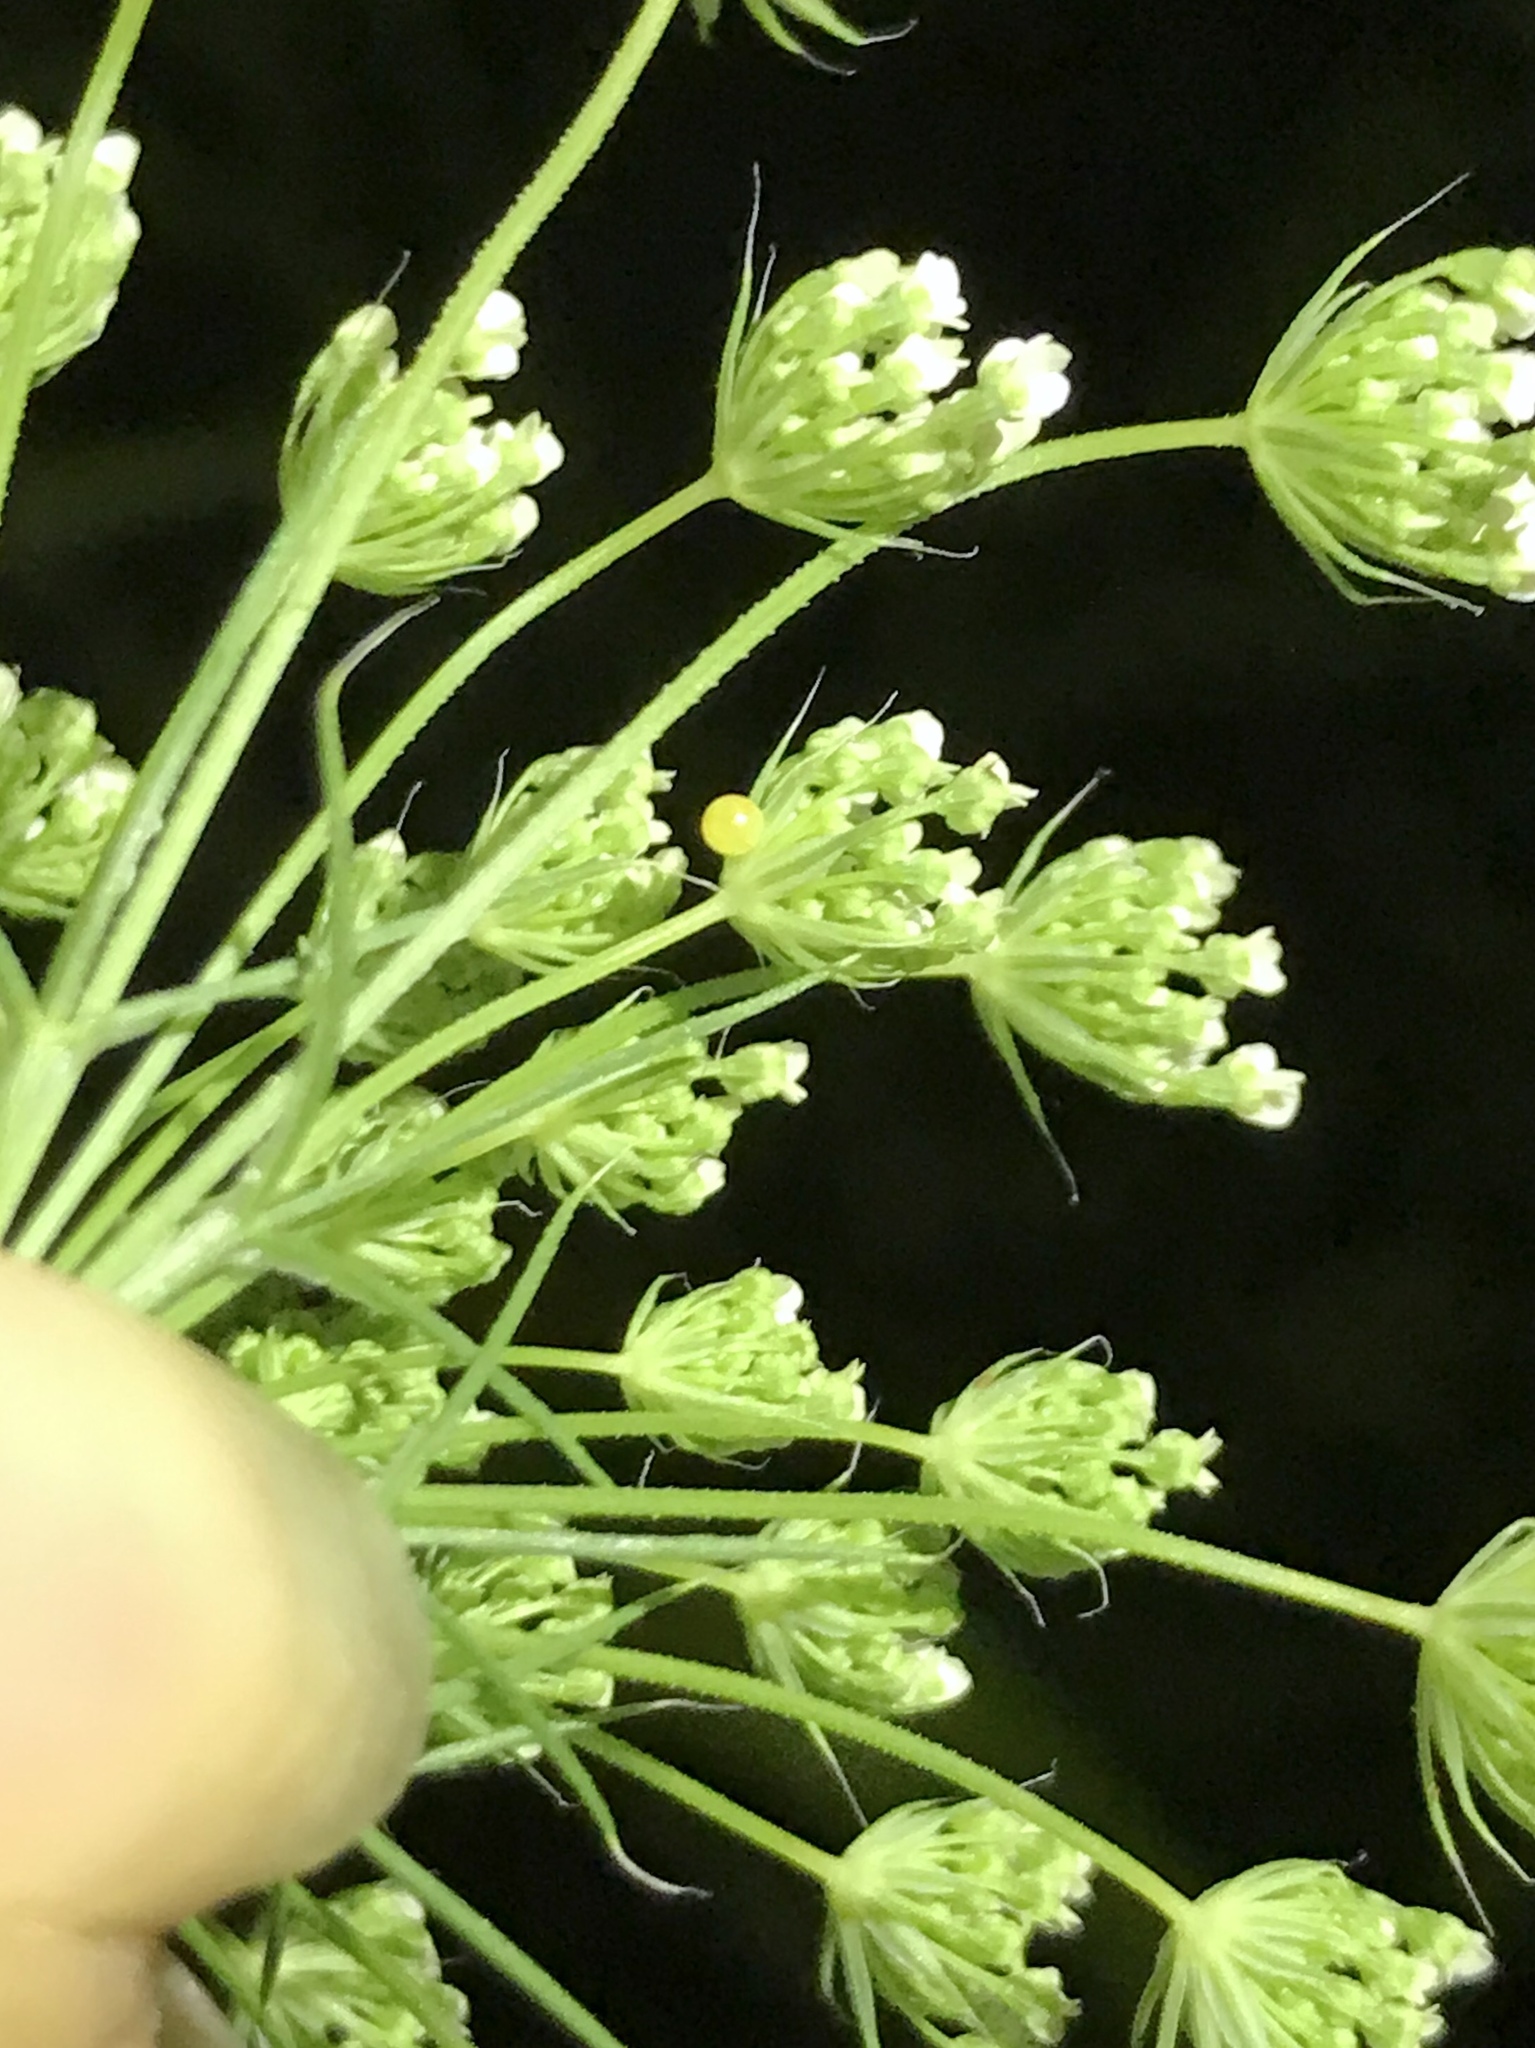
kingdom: Animalia
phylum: Arthropoda
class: Insecta
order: Lepidoptera
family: Papilionidae
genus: Papilio
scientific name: Papilio polyxenes
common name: Black swallowtail
